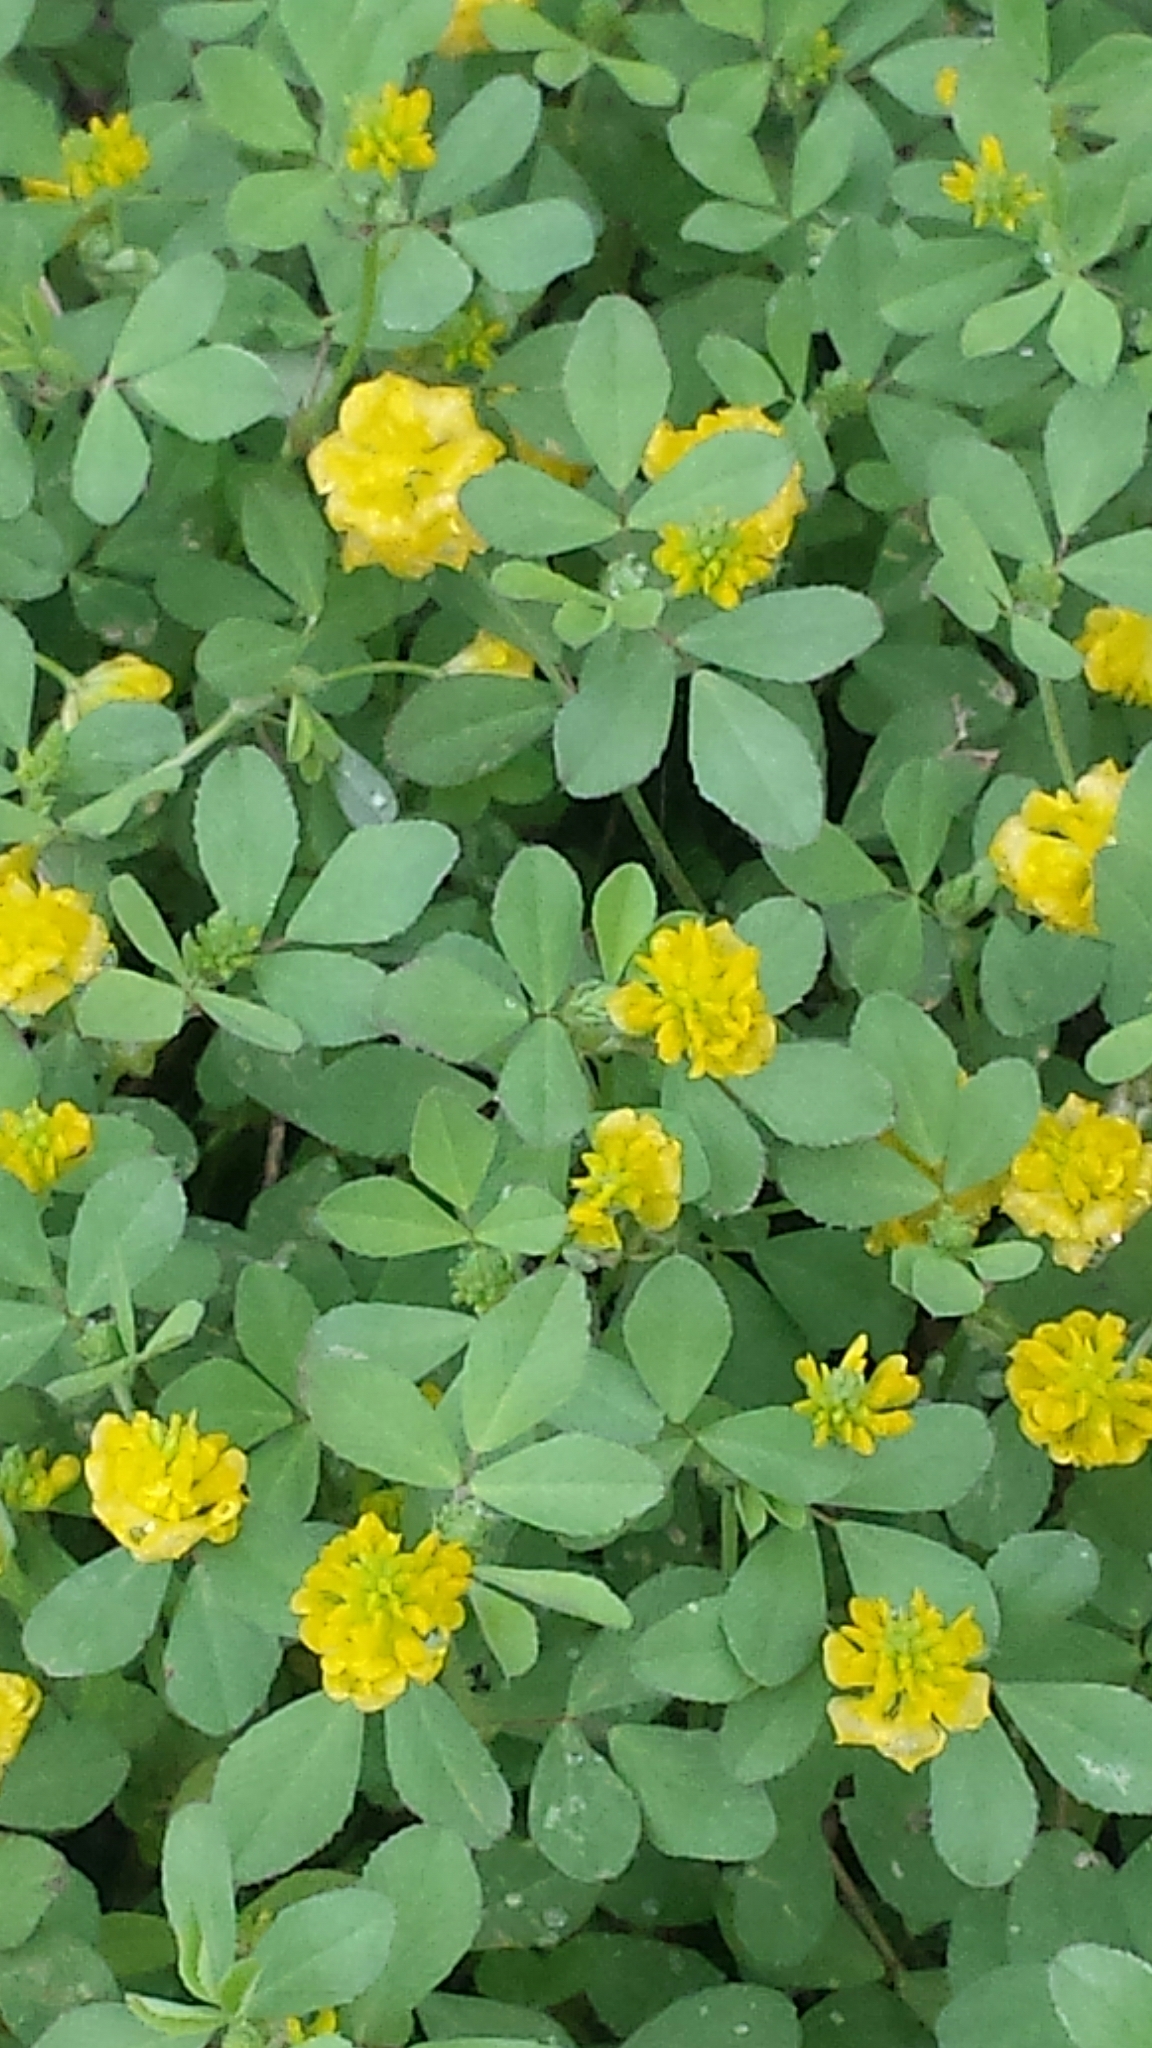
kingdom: Plantae
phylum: Tracheophyta
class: Magnoliopsida
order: Fabales
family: Fabaceae
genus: Trifolium
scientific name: Trifolium campestre
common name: Field clover
